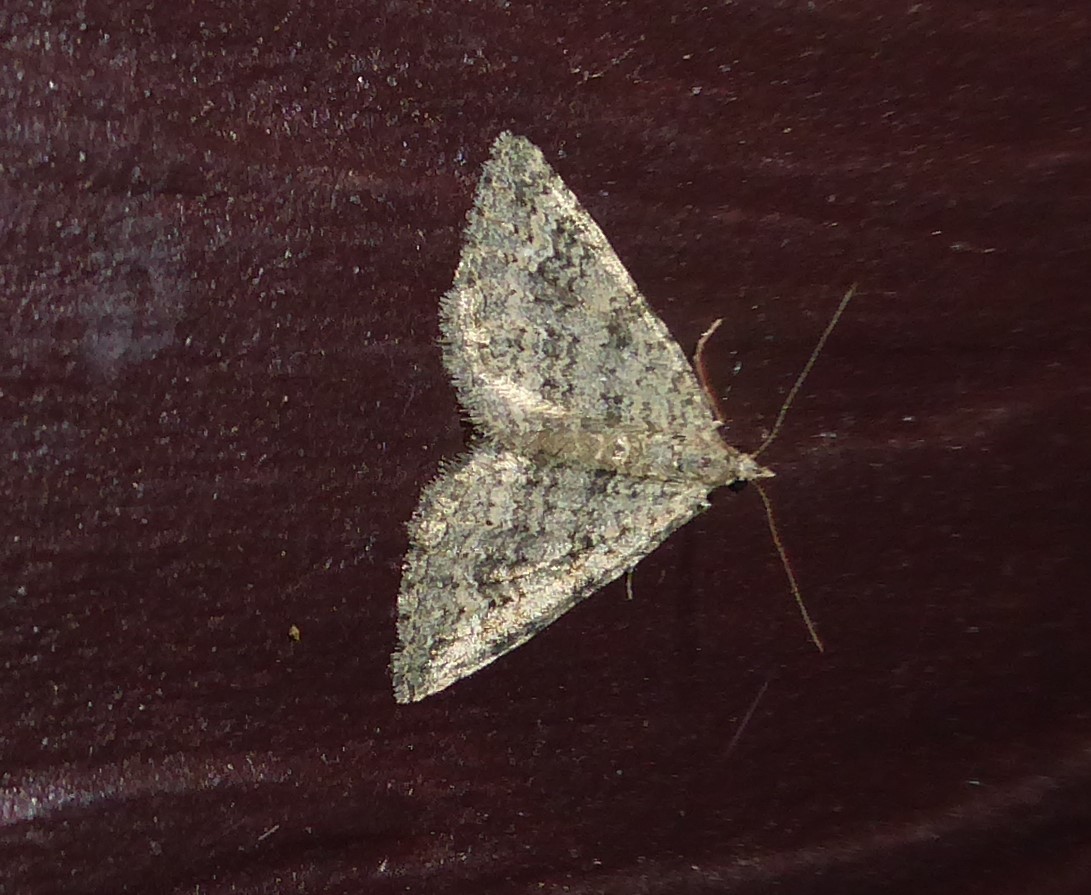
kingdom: Animalia
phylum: Arthropoda
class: Insecta
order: Lepidoptera
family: Geometridae
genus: Helastia
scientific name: Helastia corcularia
